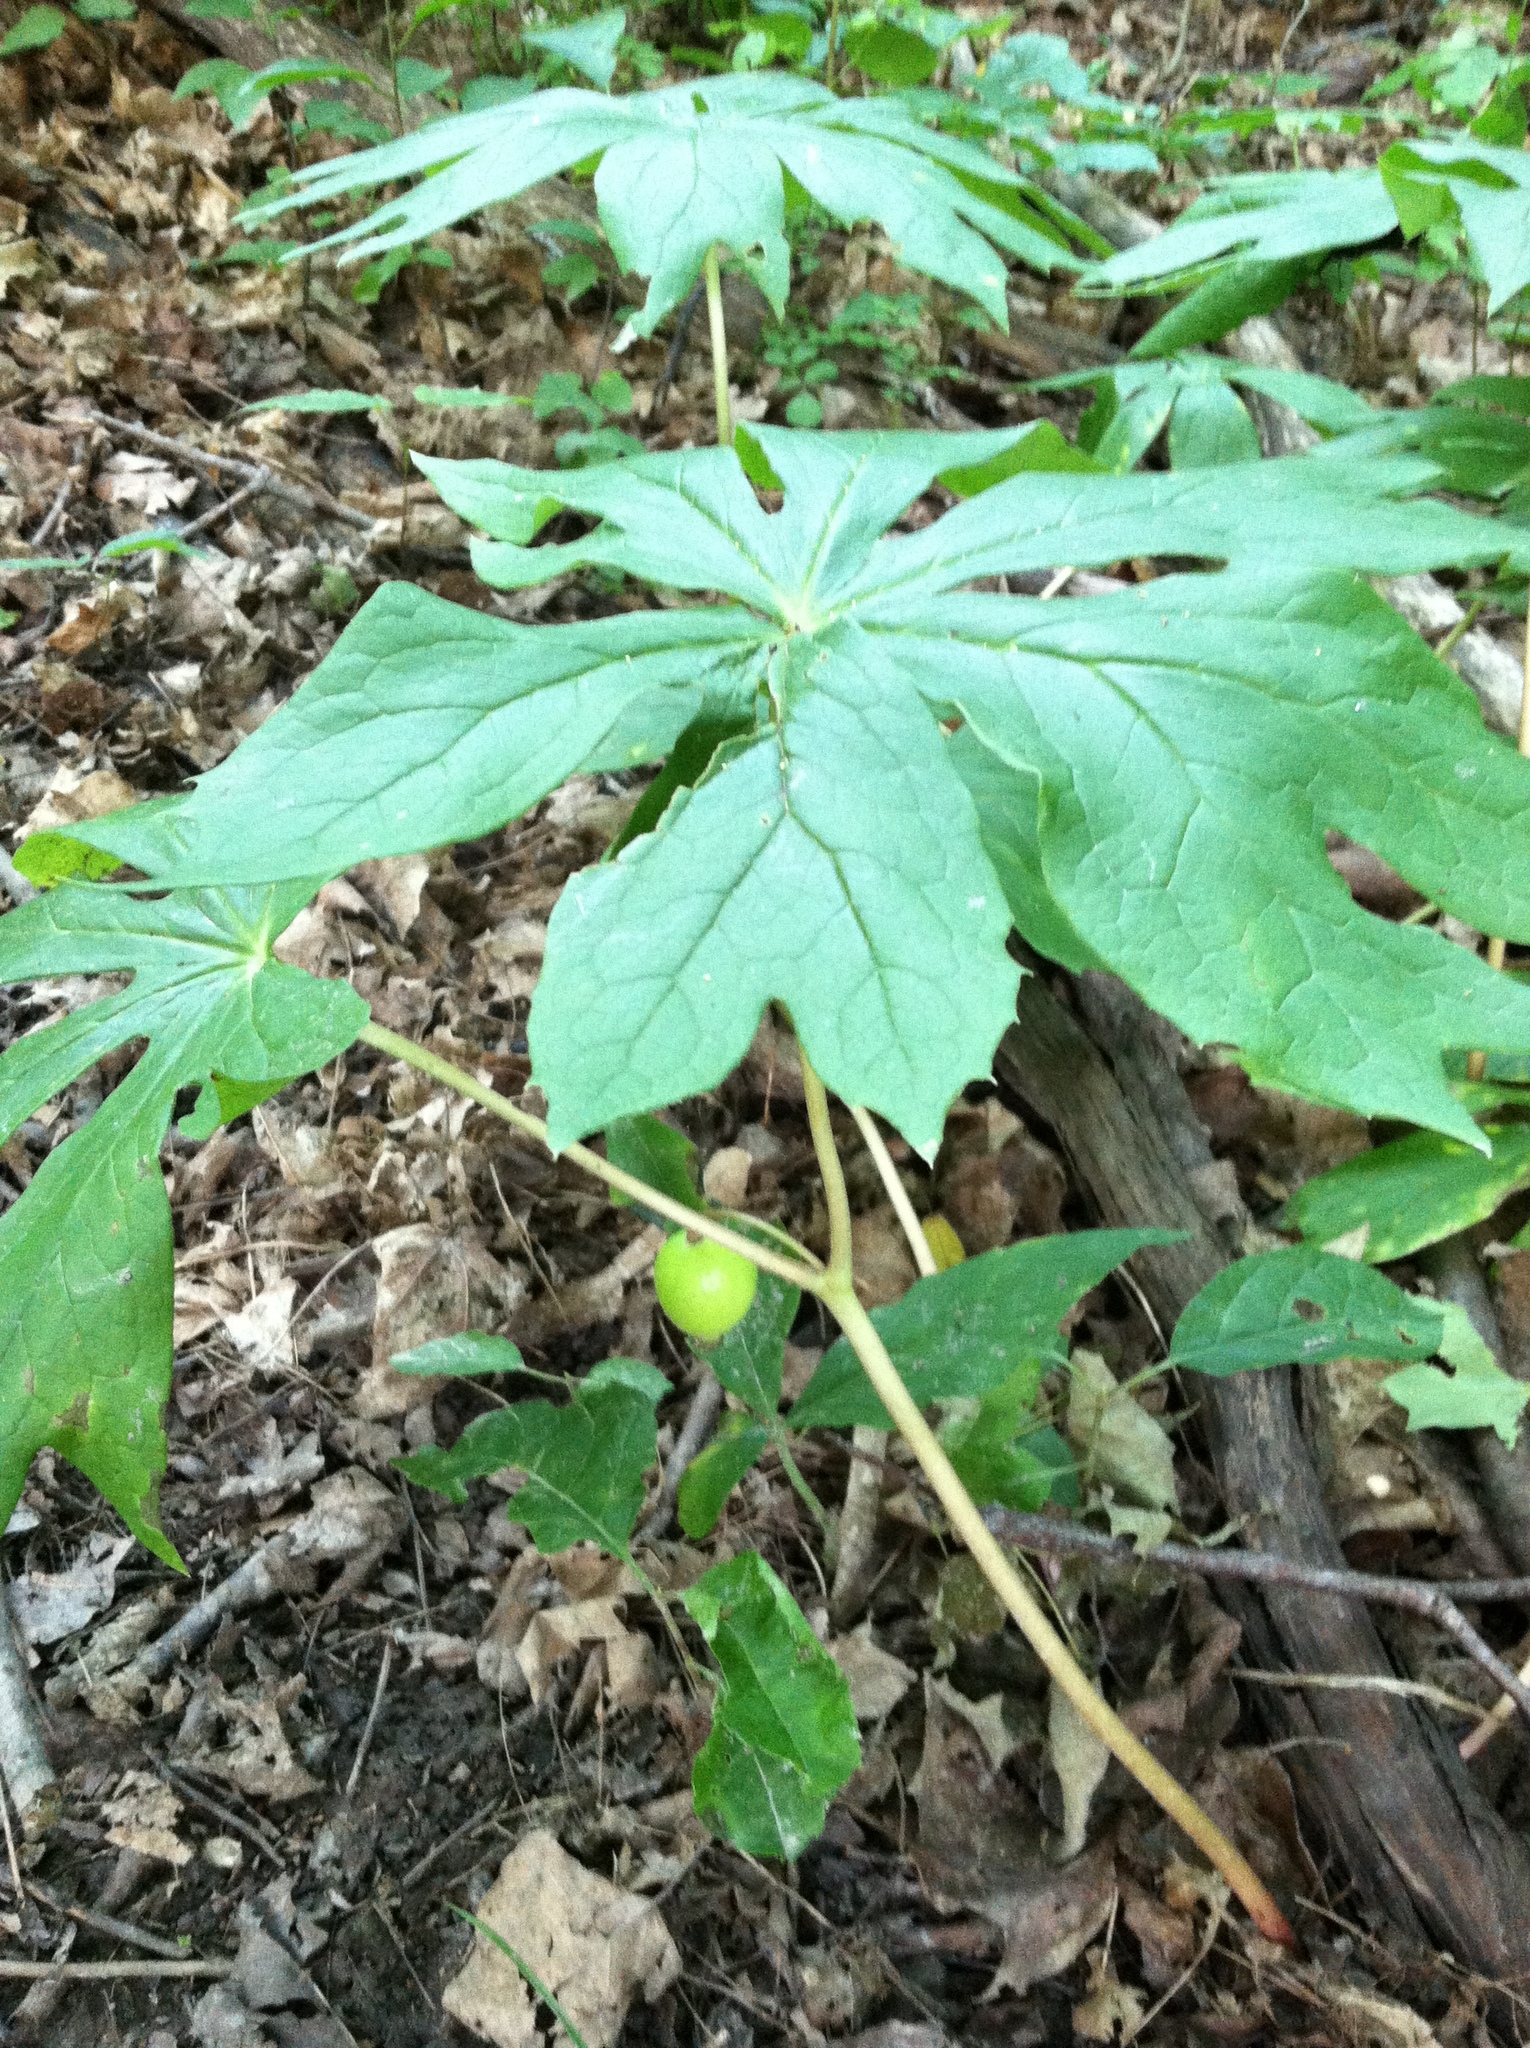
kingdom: Plantae
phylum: Tracheophyta
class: Magnoliopsida
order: Ranunculales
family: Berberidaceae
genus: Podophyllum
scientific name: Podophyllum peltatum
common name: Wild mandrake
